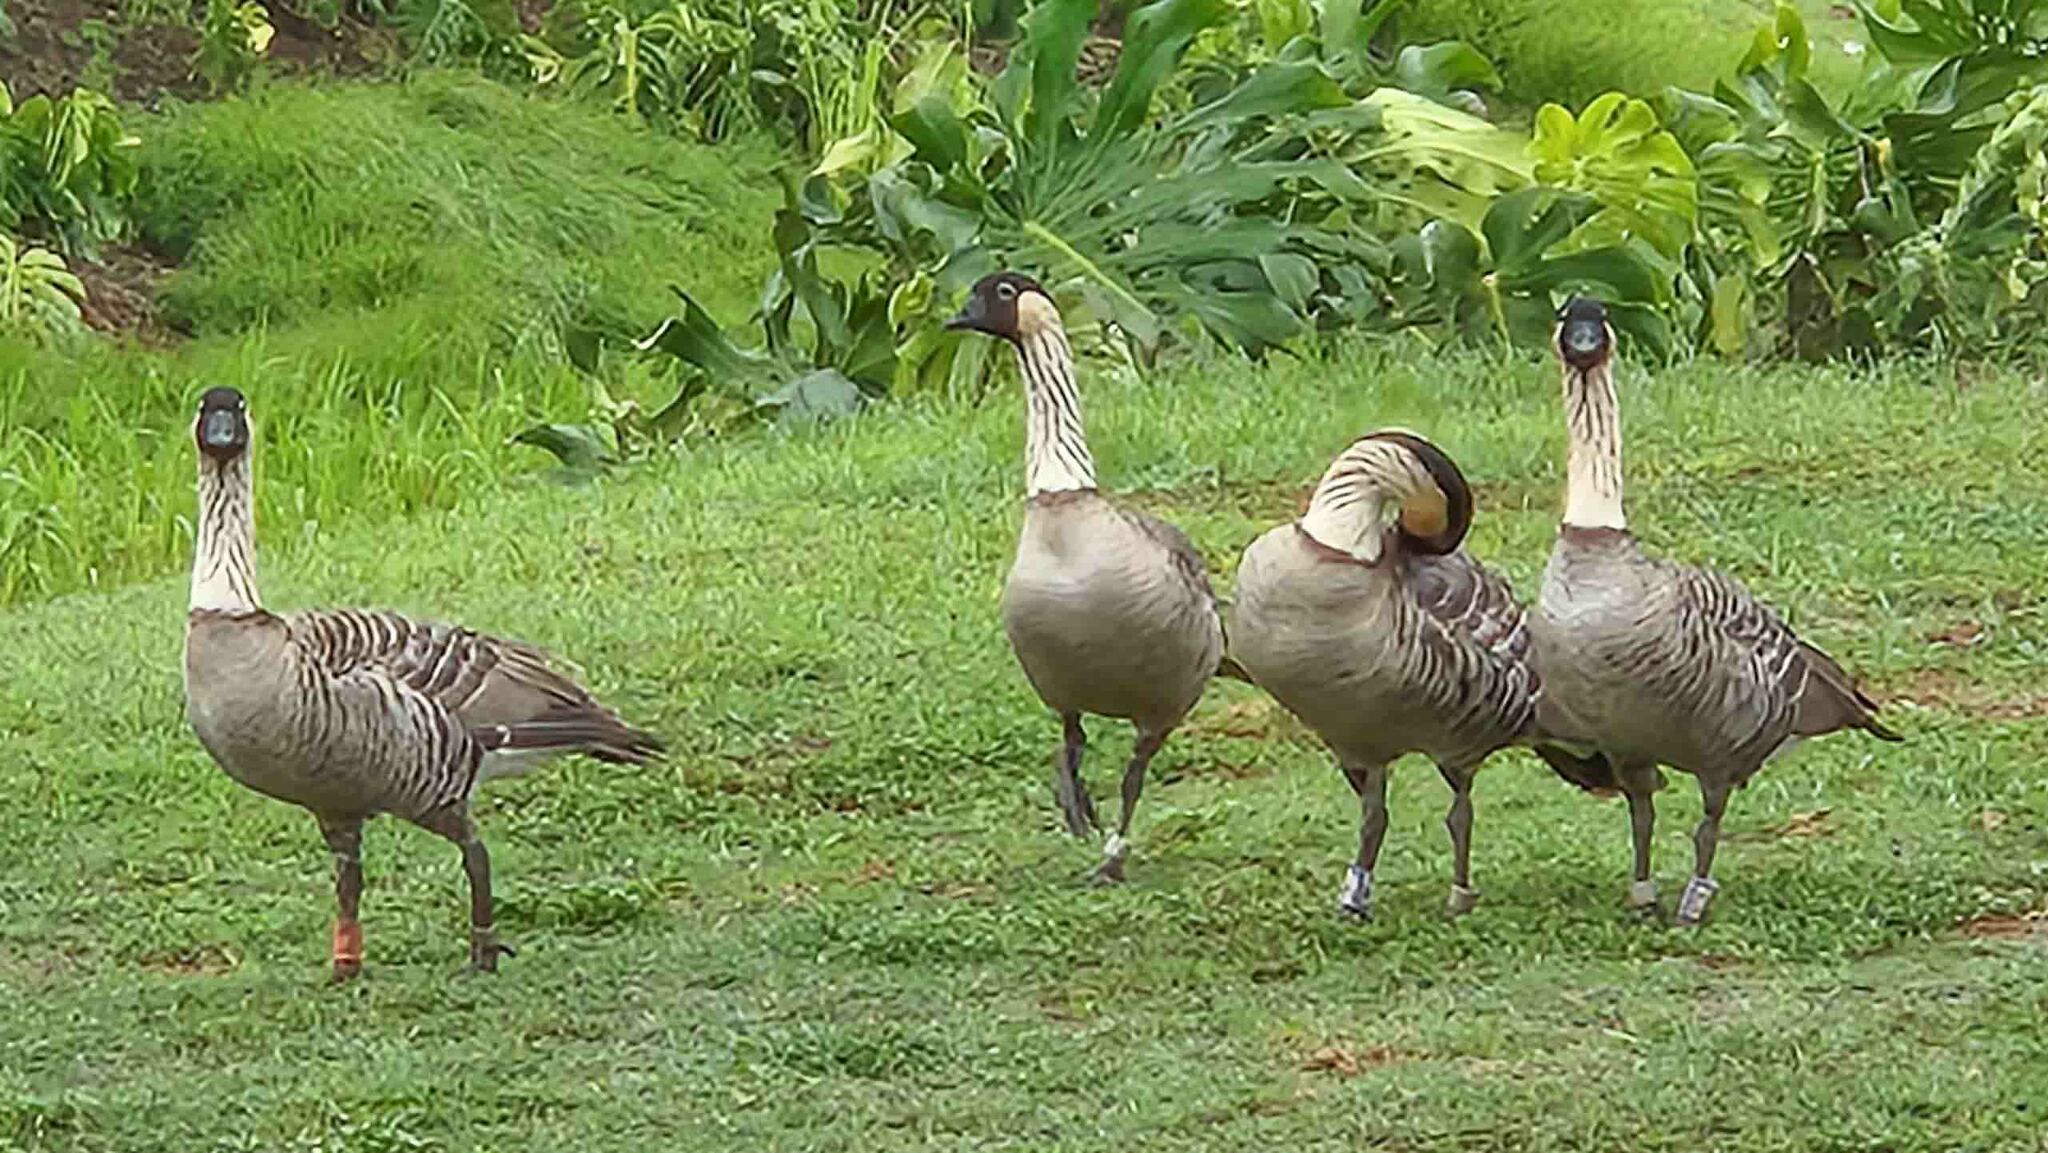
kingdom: Animalia
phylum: Chordata
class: Aves
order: Anseriformes
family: Anatidae
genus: Branta
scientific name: Branta sandvicensis
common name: Nene
